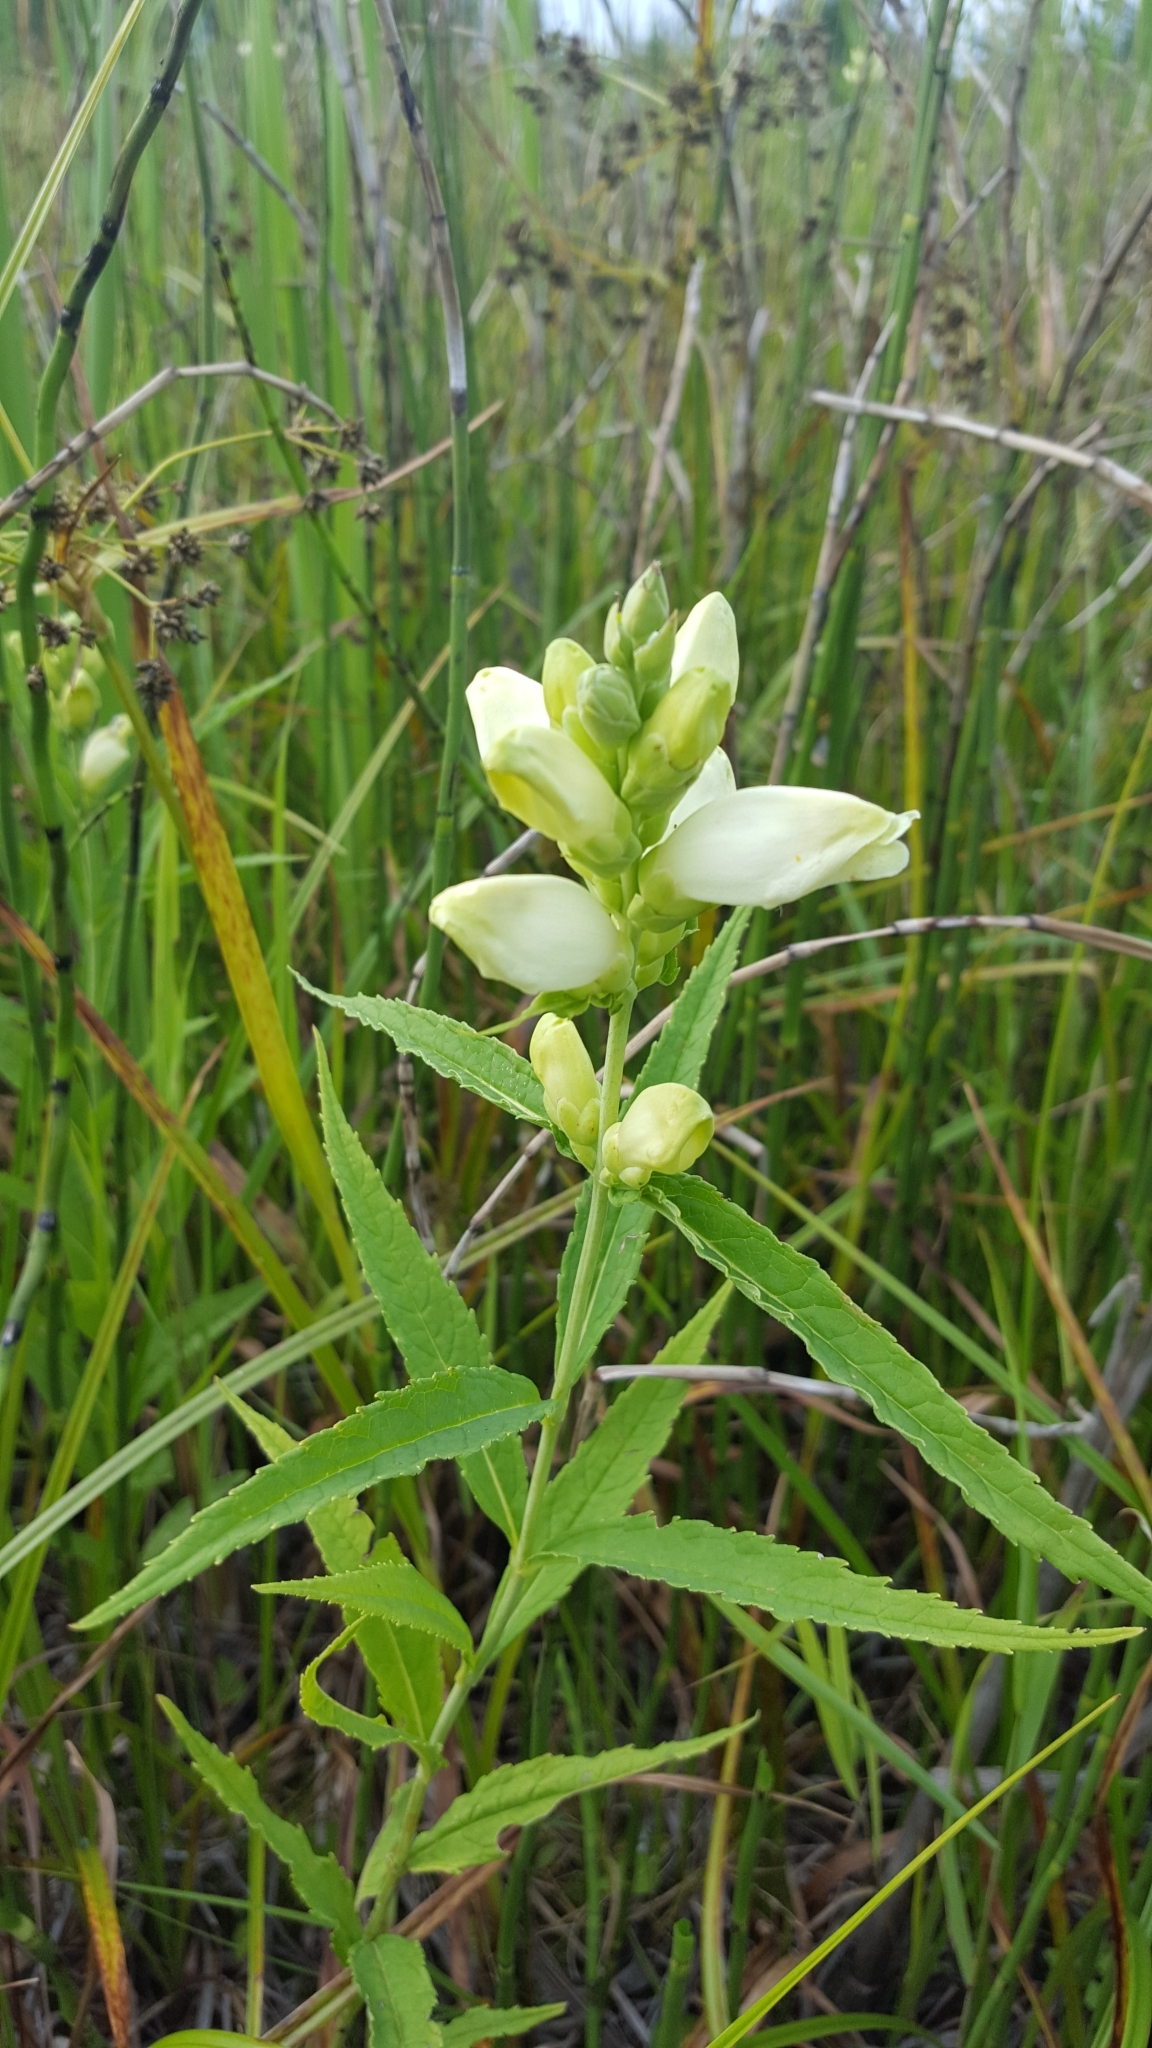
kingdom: Plantae
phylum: Tracheophyta
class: Magnoliopsida
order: Lamiales
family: Plantaginaceae
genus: Chelone
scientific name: Chelone glabra
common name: Snakehead
